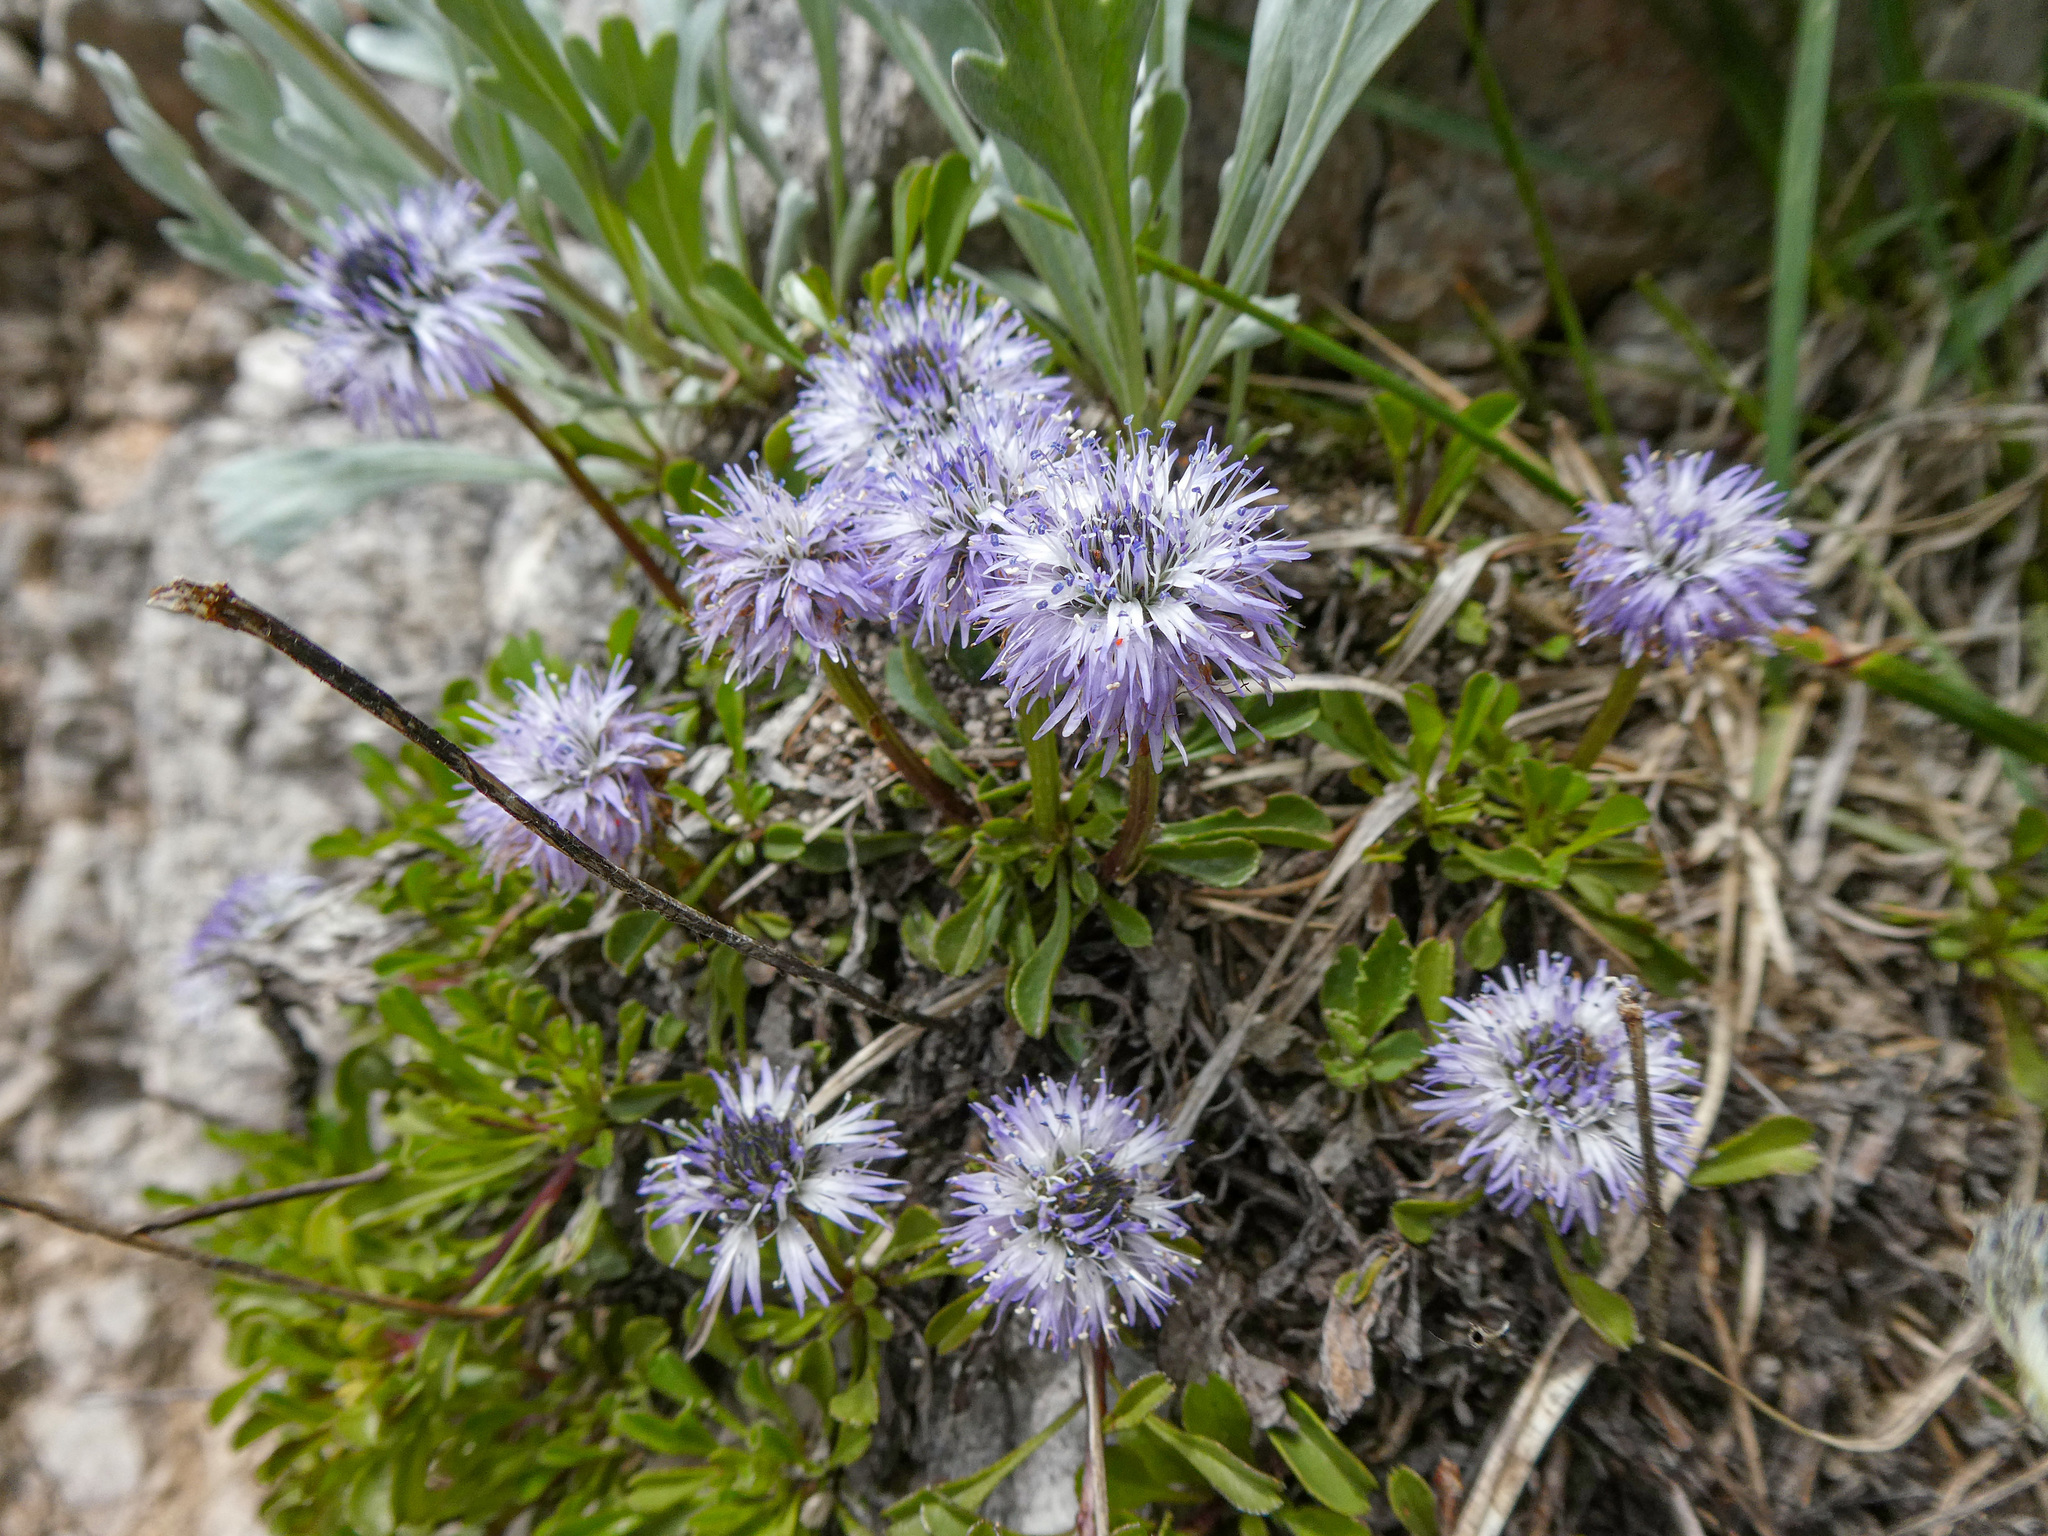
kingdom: Plantae
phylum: Tracheophyta
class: Magnoliopsida
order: Lamiales
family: Plantaginaceae
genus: Globularia
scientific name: Globularia cordifolia
